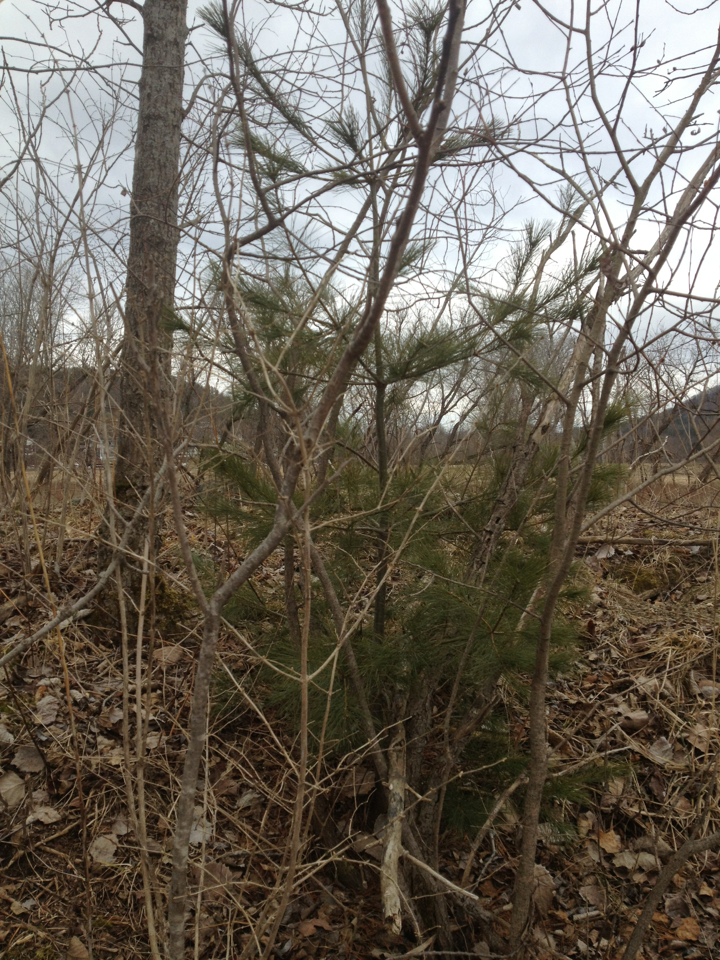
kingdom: Plantae
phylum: Tracheophyta
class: Pinopsida
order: Pinales
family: Pinaceae
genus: Pinus
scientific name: Pinus strobus
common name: Weymouth pine
